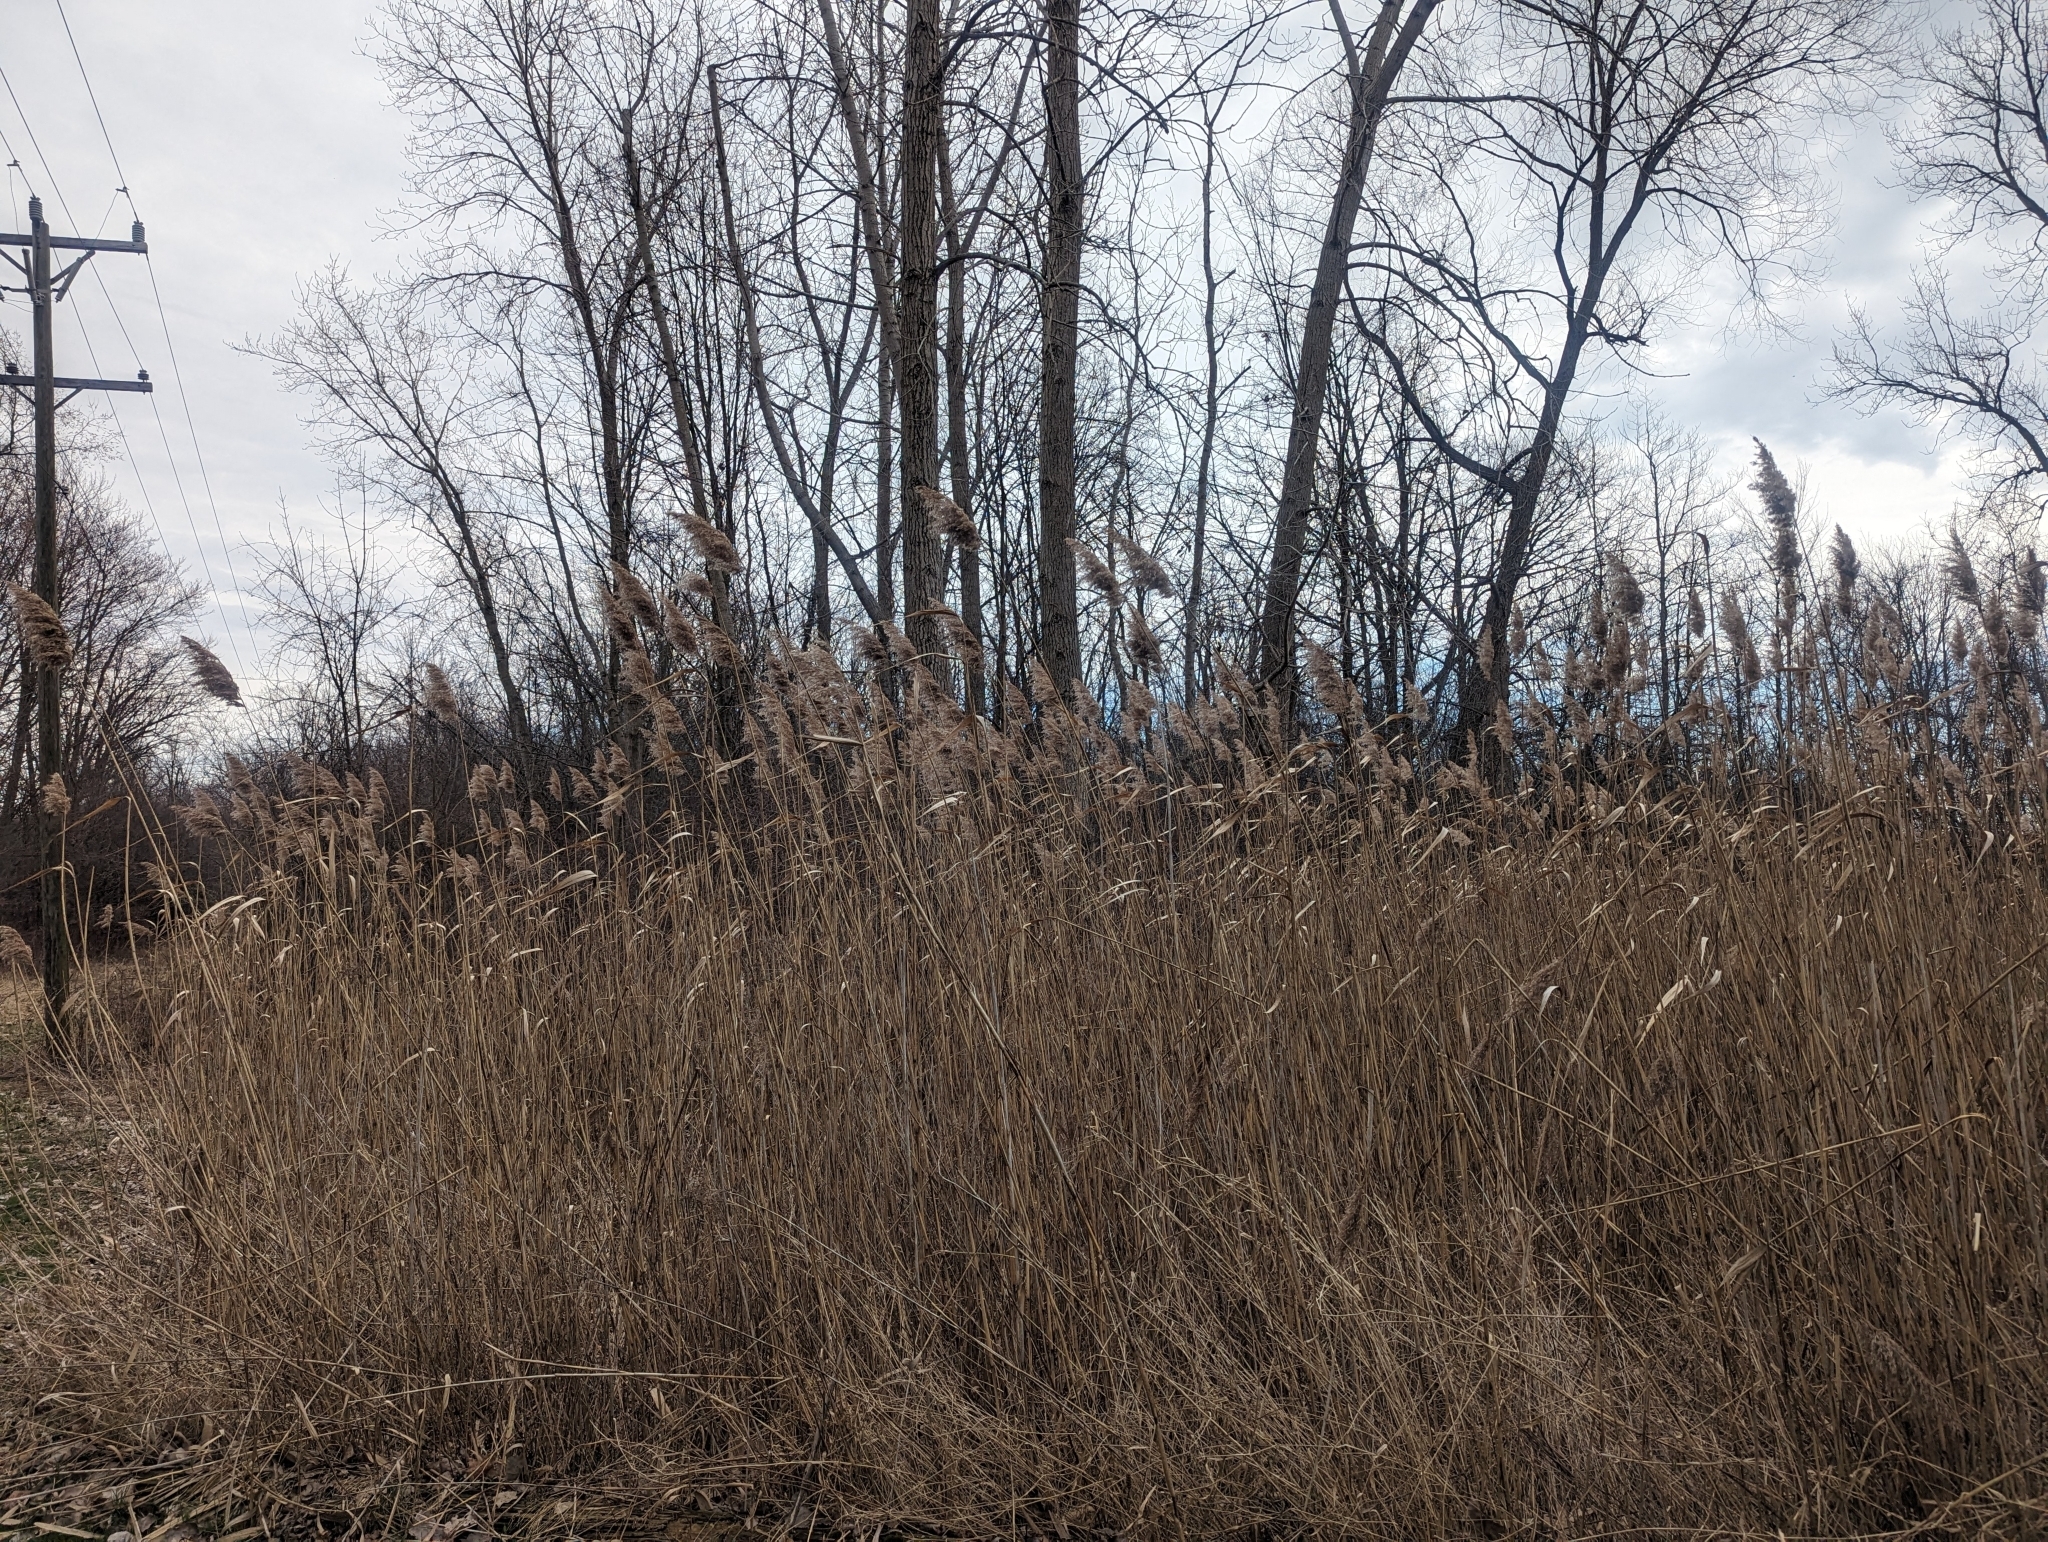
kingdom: Plantae
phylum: Tracheophyta
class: Liliopsida
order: Poales
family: Poaceae
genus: Phragmites
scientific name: Phragmites australis
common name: Common reed
